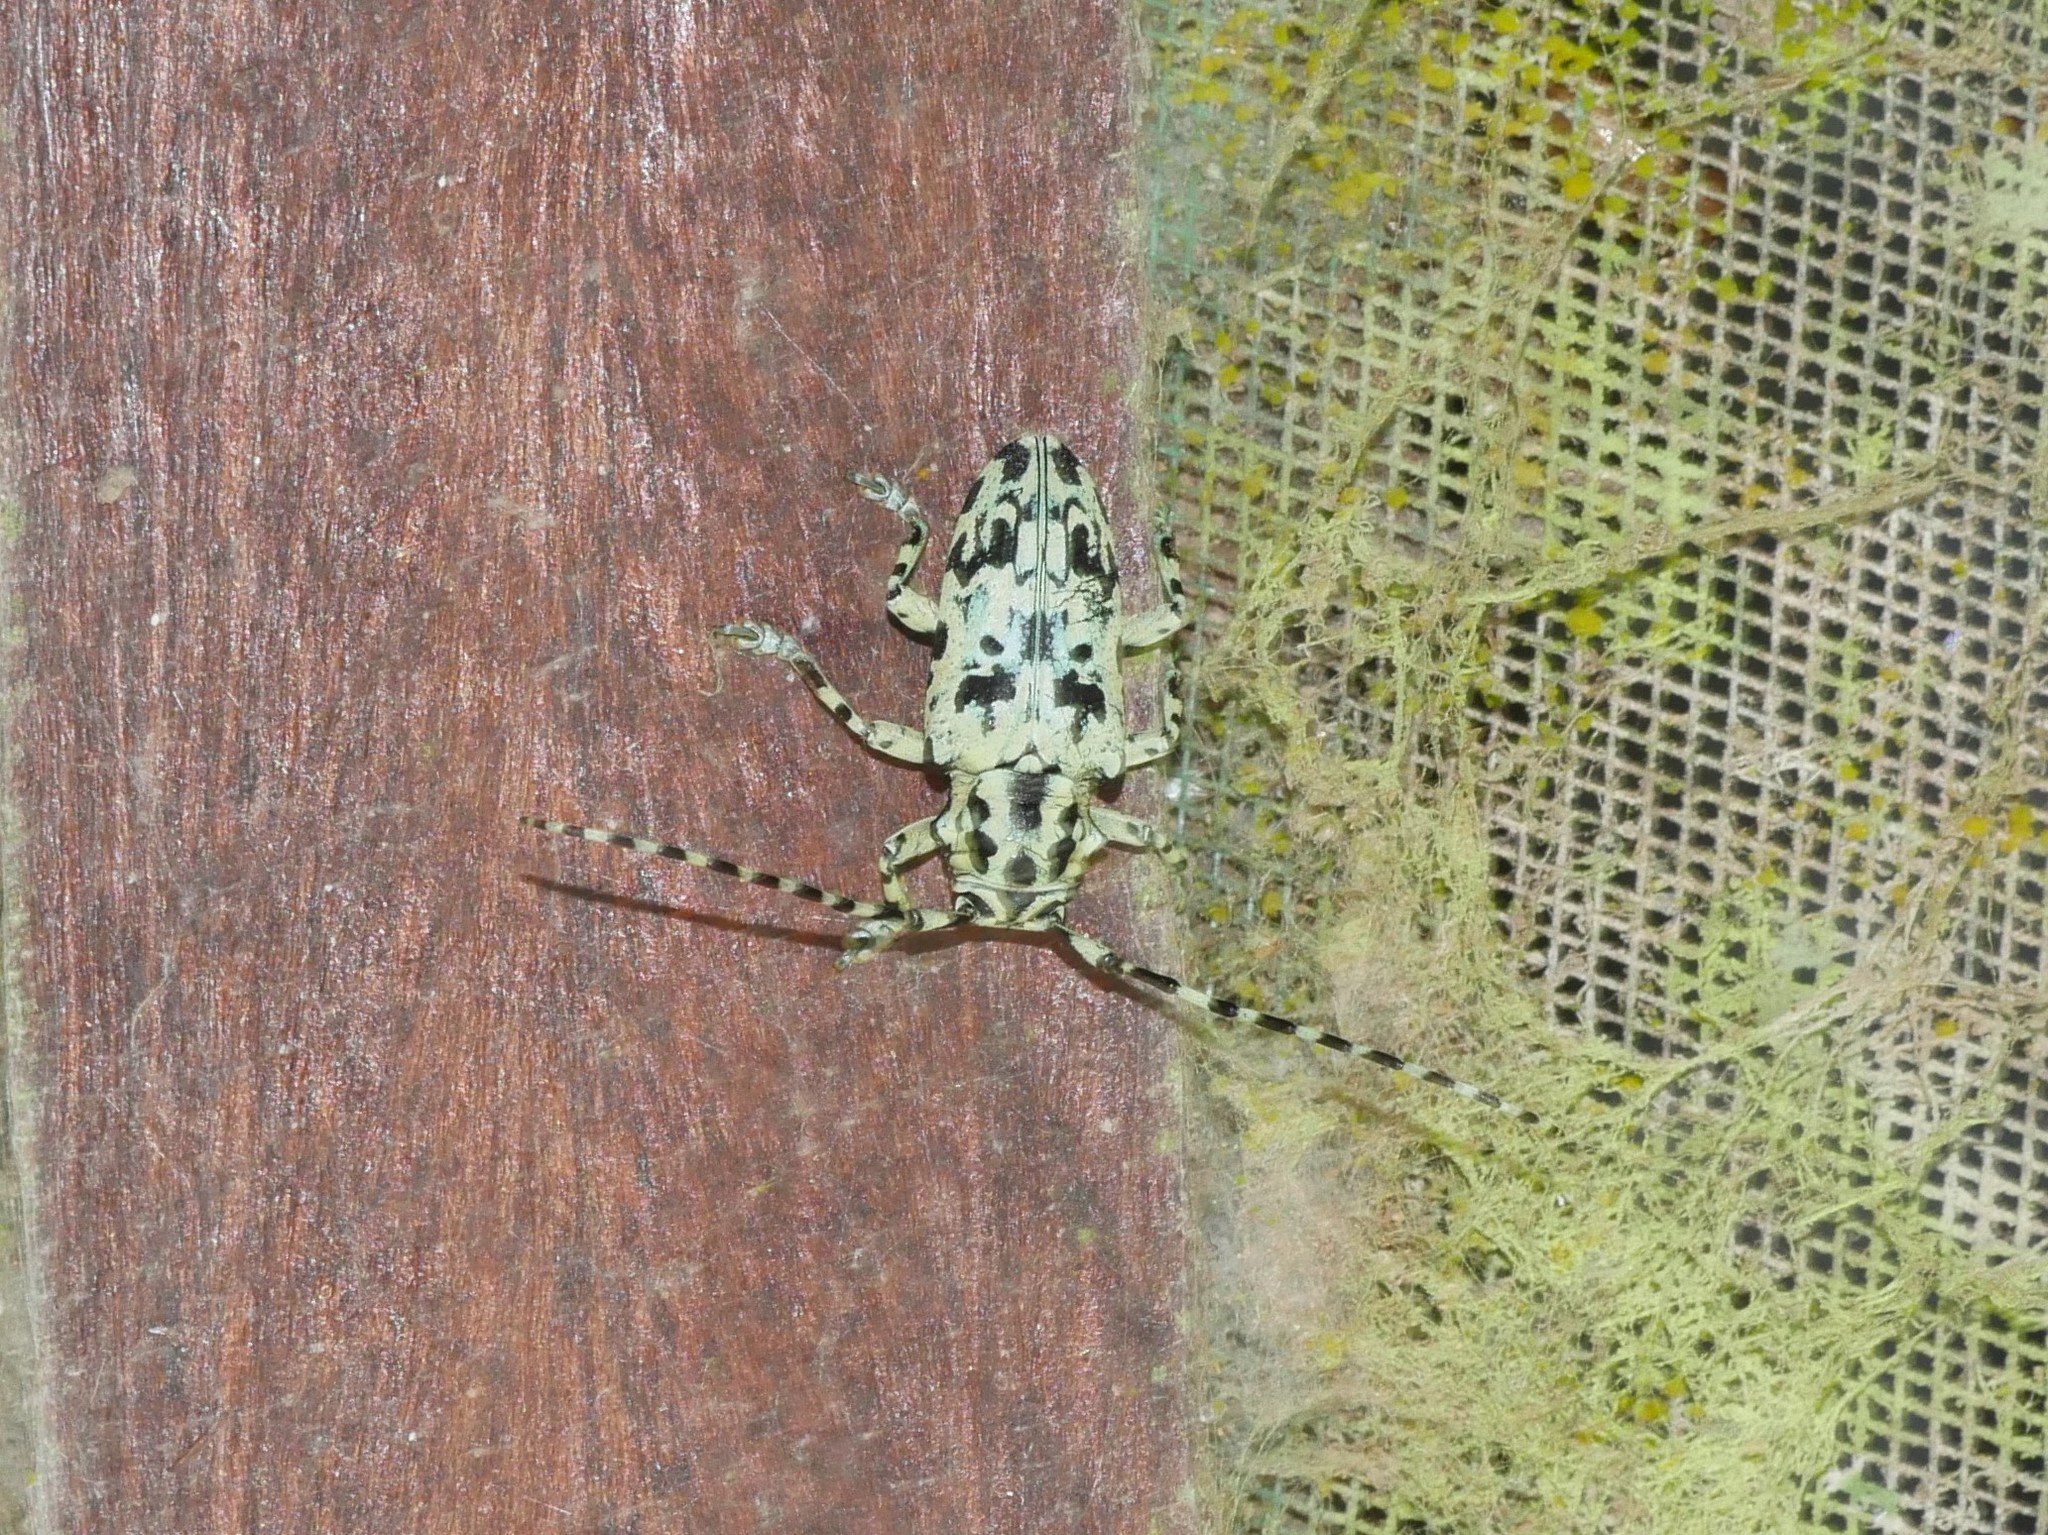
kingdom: Animalia
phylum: Arthropoda
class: Insecta
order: Coleoptera
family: Cerambycidae
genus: Freadelpha
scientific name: Freadelpha eremita
